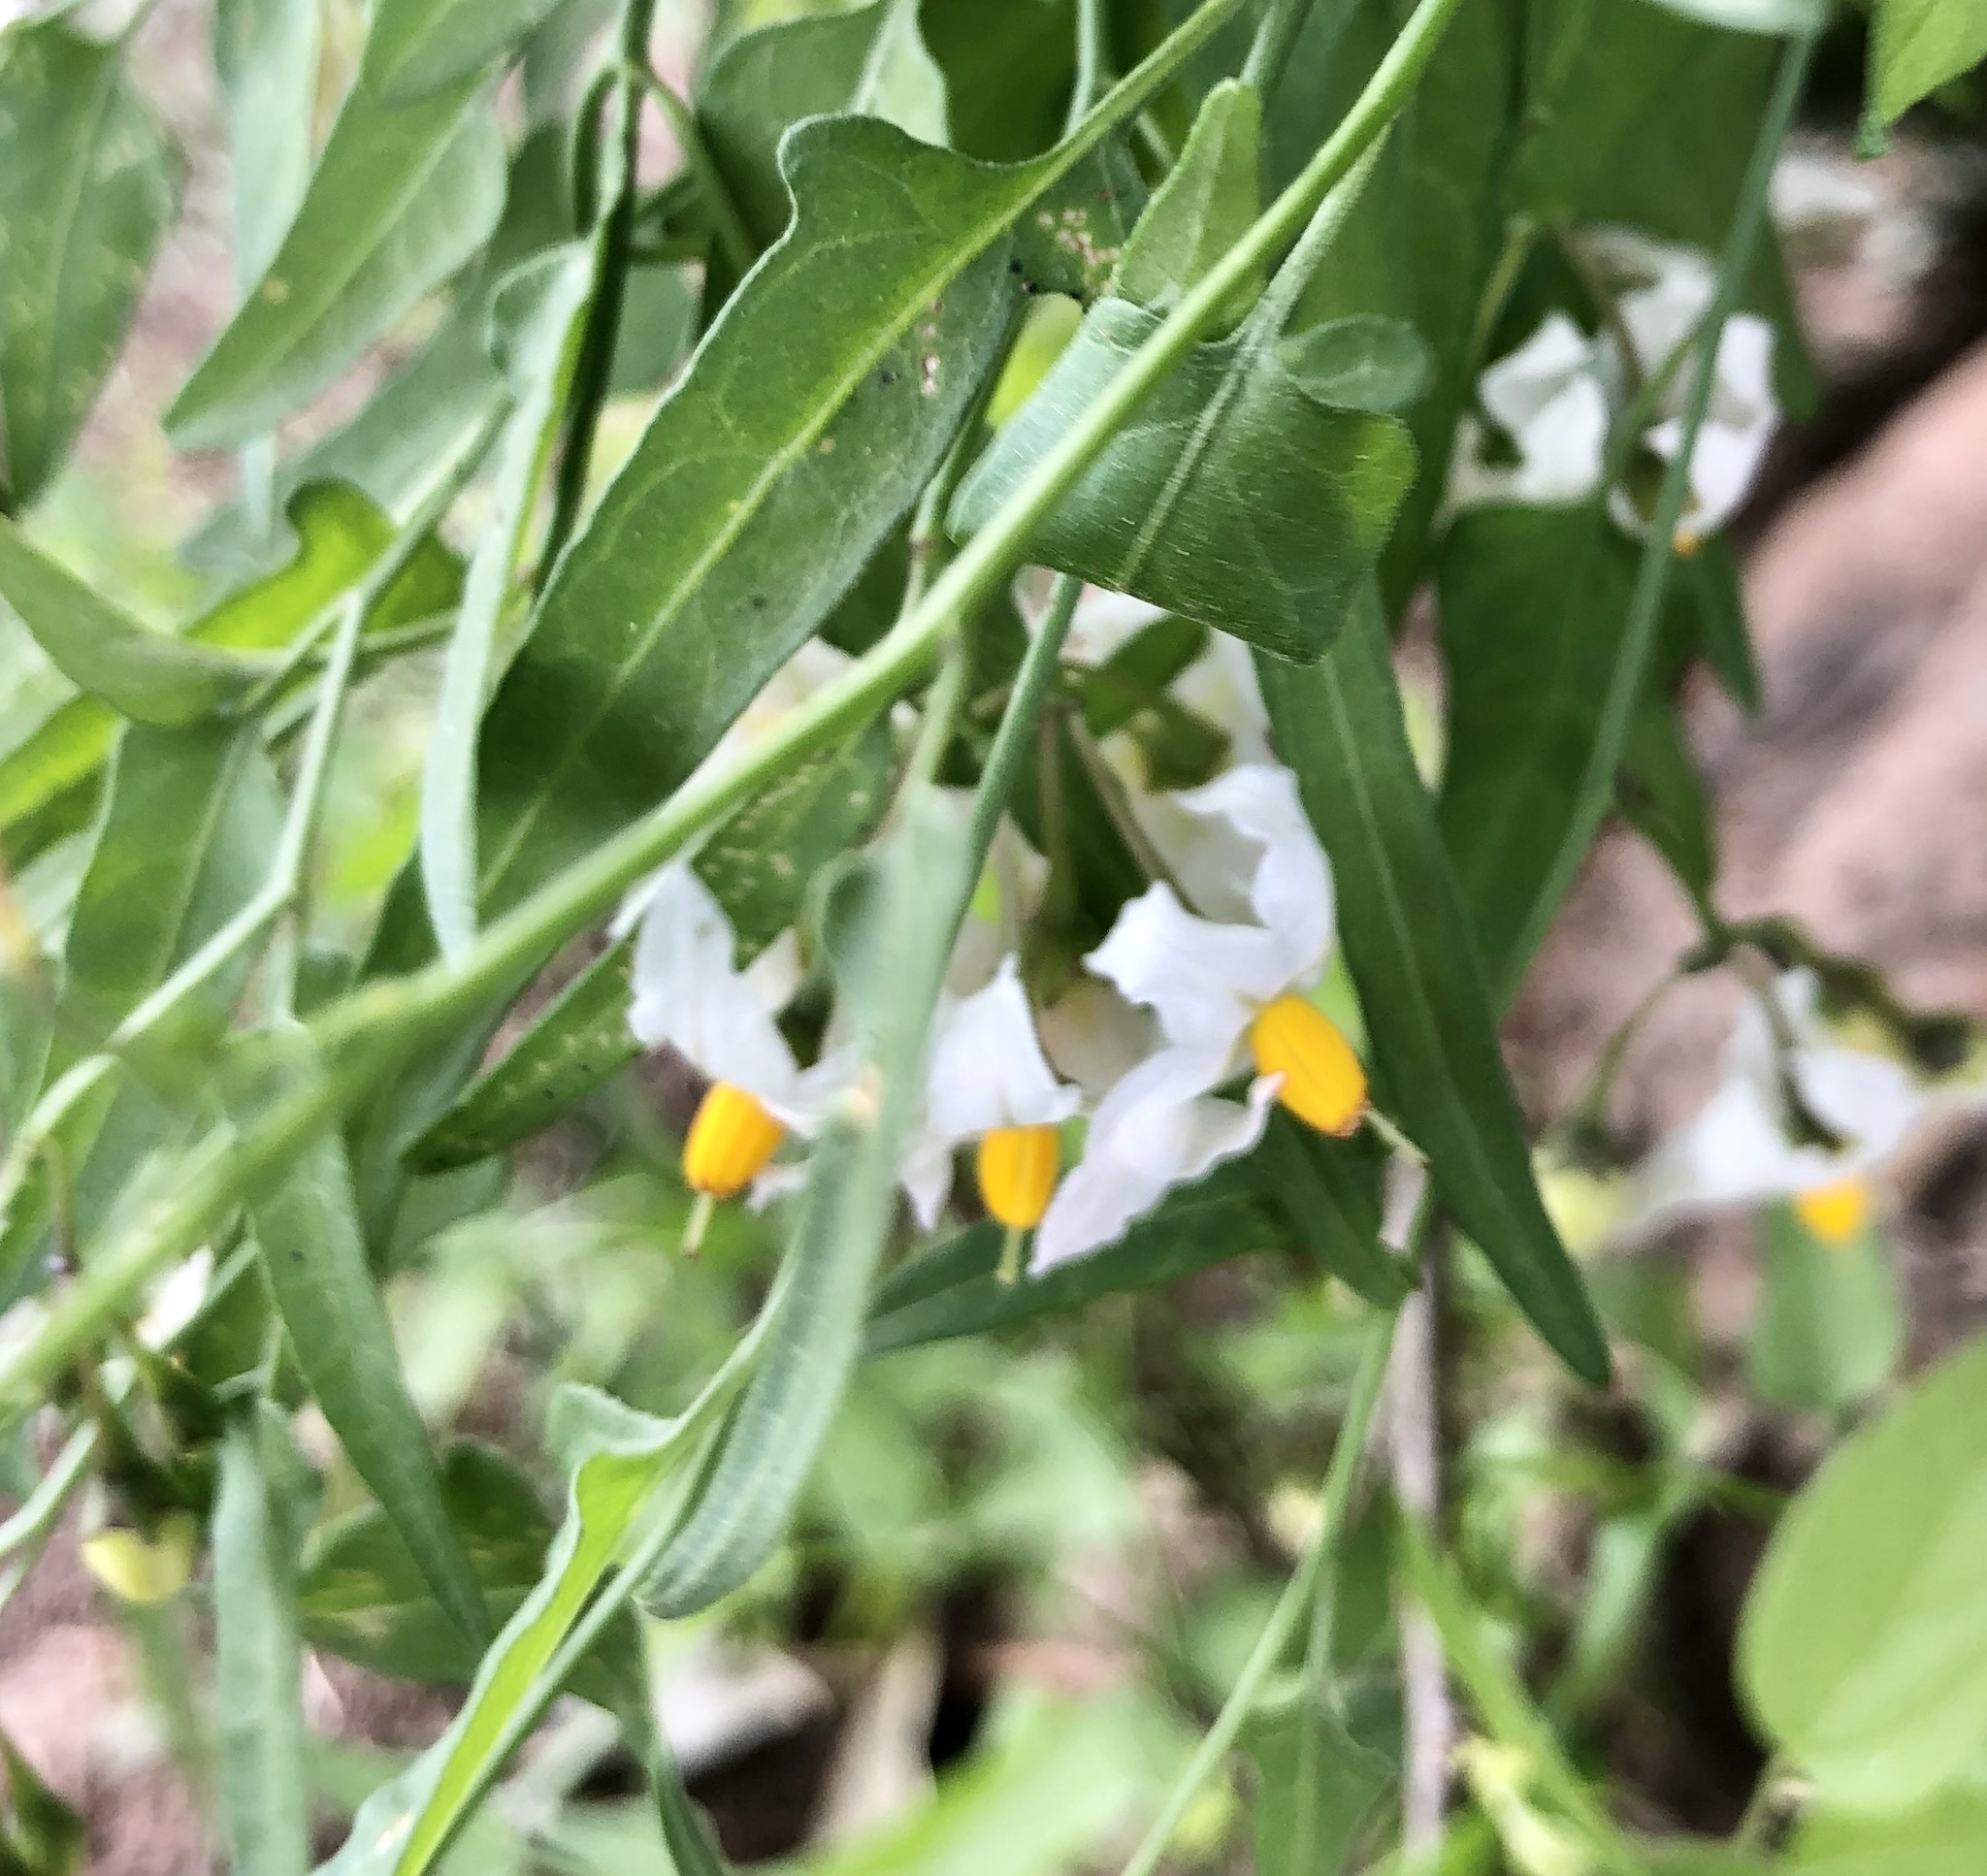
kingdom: Plantae
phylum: Tracheophyta
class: Magnoliopsida
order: Solanales
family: Solanaceae
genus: Solanum
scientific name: Solanum triquetrum
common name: Texas nightshade
